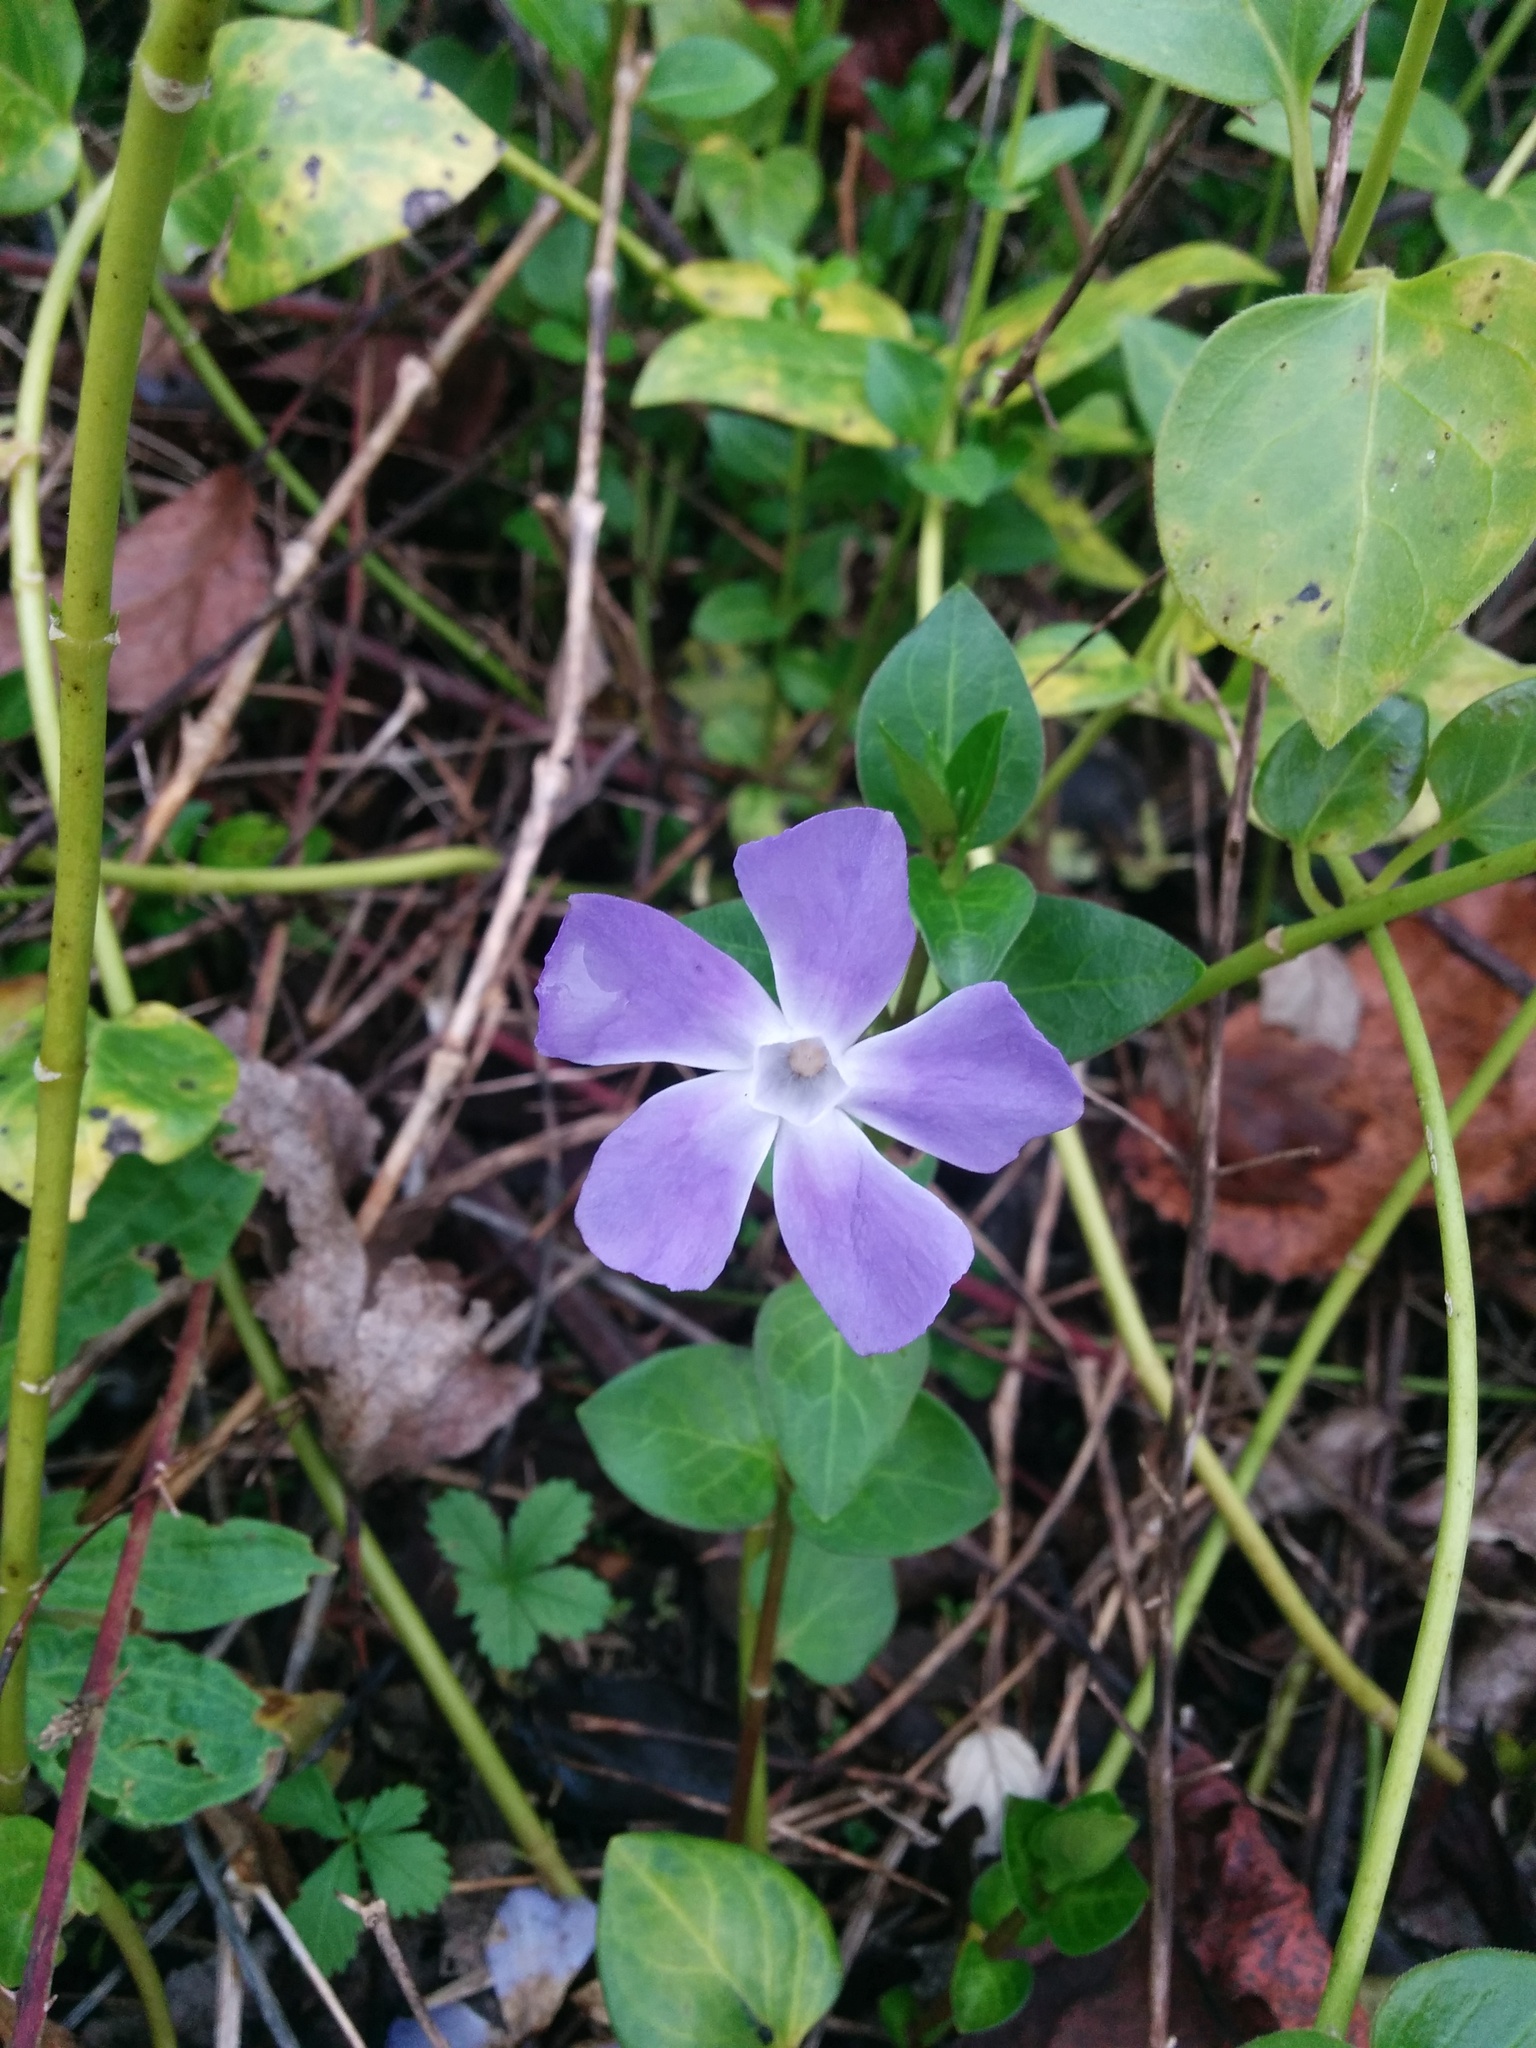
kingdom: Plantae
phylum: Tracheophyta
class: Magnoliopsida
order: Gentianales
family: Apocynaceae
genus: Vinca
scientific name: Vinca major
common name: Greater periwinkle
